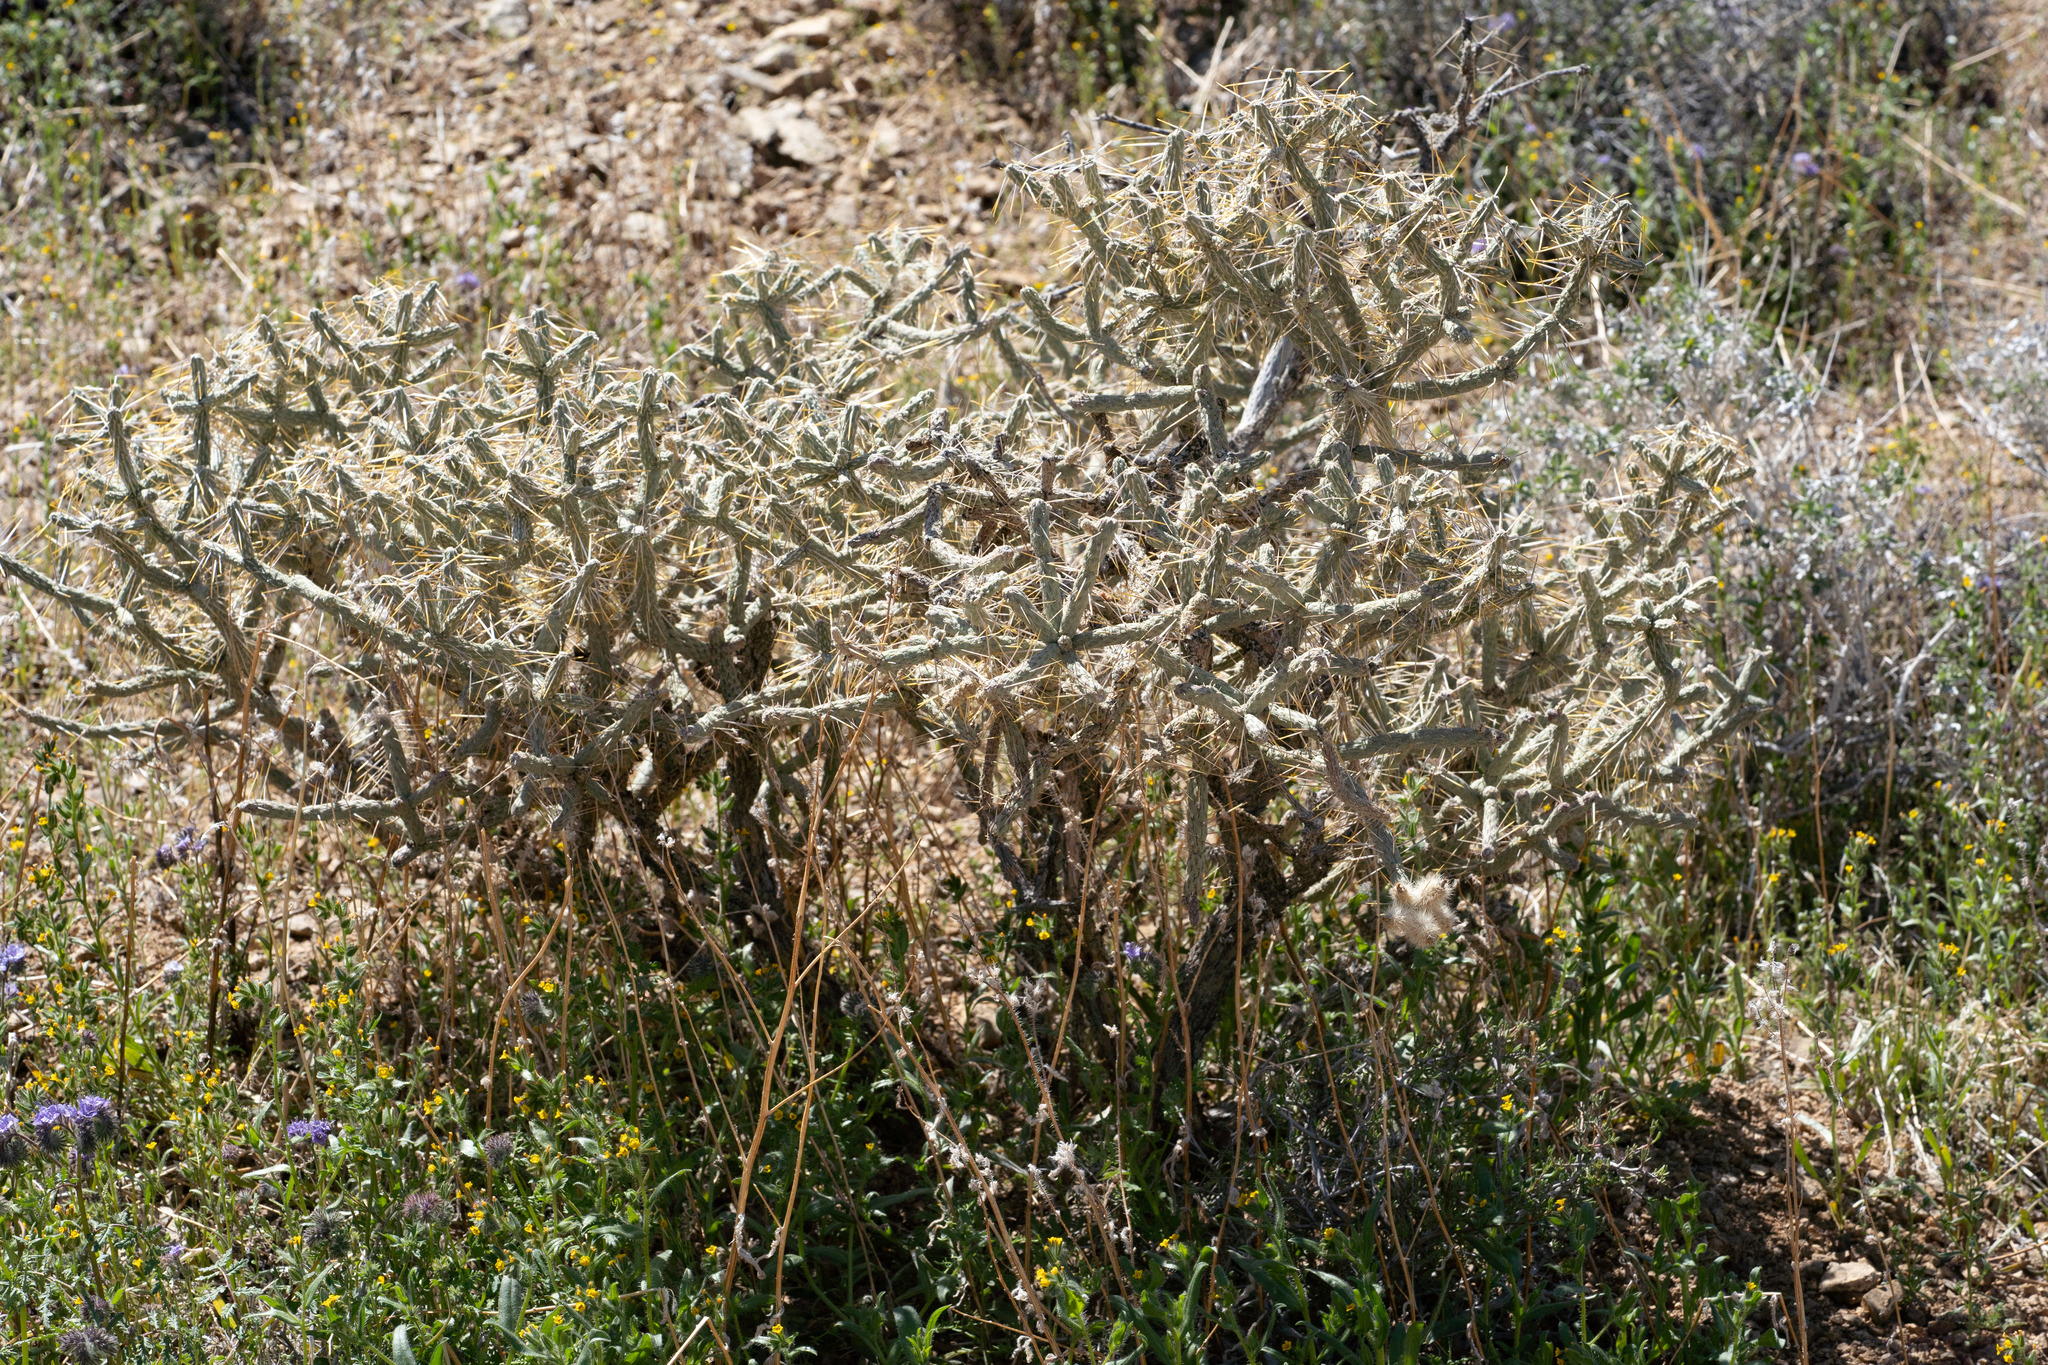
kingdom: Plantae
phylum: Tracheophyta
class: Magnoliopsida
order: Caryophyllales
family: Cactaceae
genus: Cylindropuntia
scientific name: Cylindropuntia ramosissima
